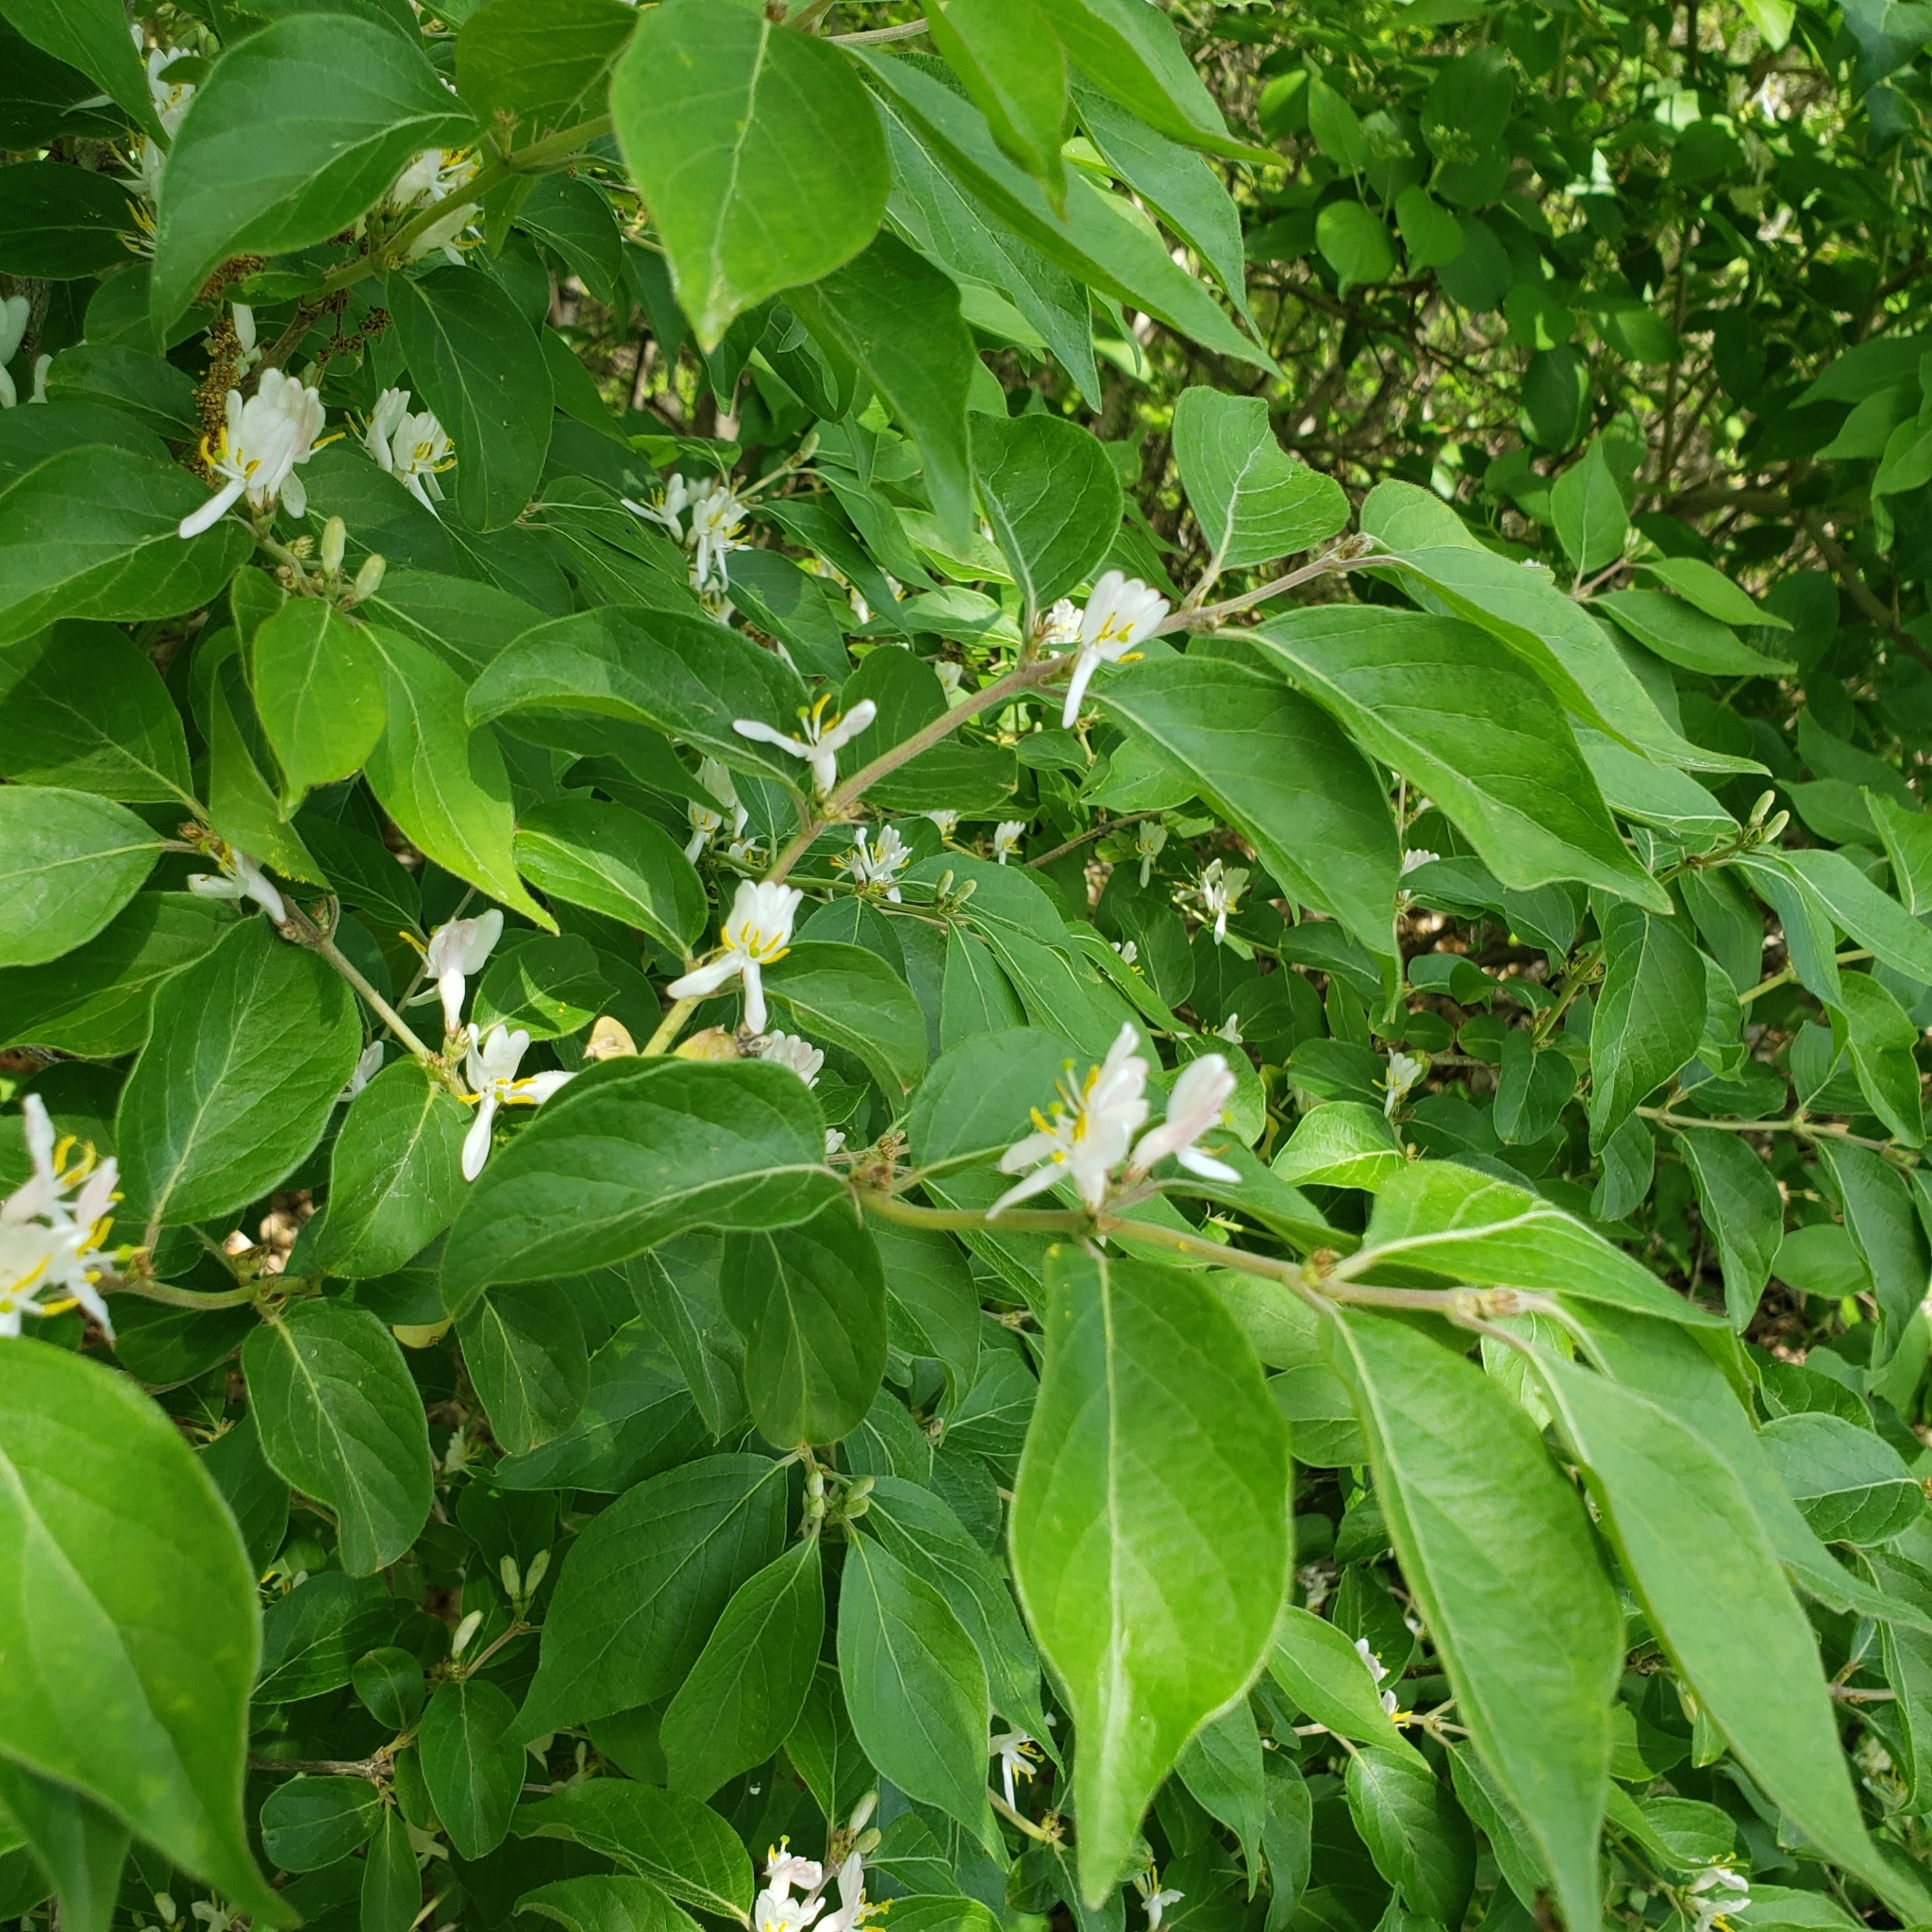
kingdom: Plantae
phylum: Tracheophyta
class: Magnoliopsida
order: Dipsacales
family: Caprifoliaceae
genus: Lonicera
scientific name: Lonicera maackii
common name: Amur honeysuckle
